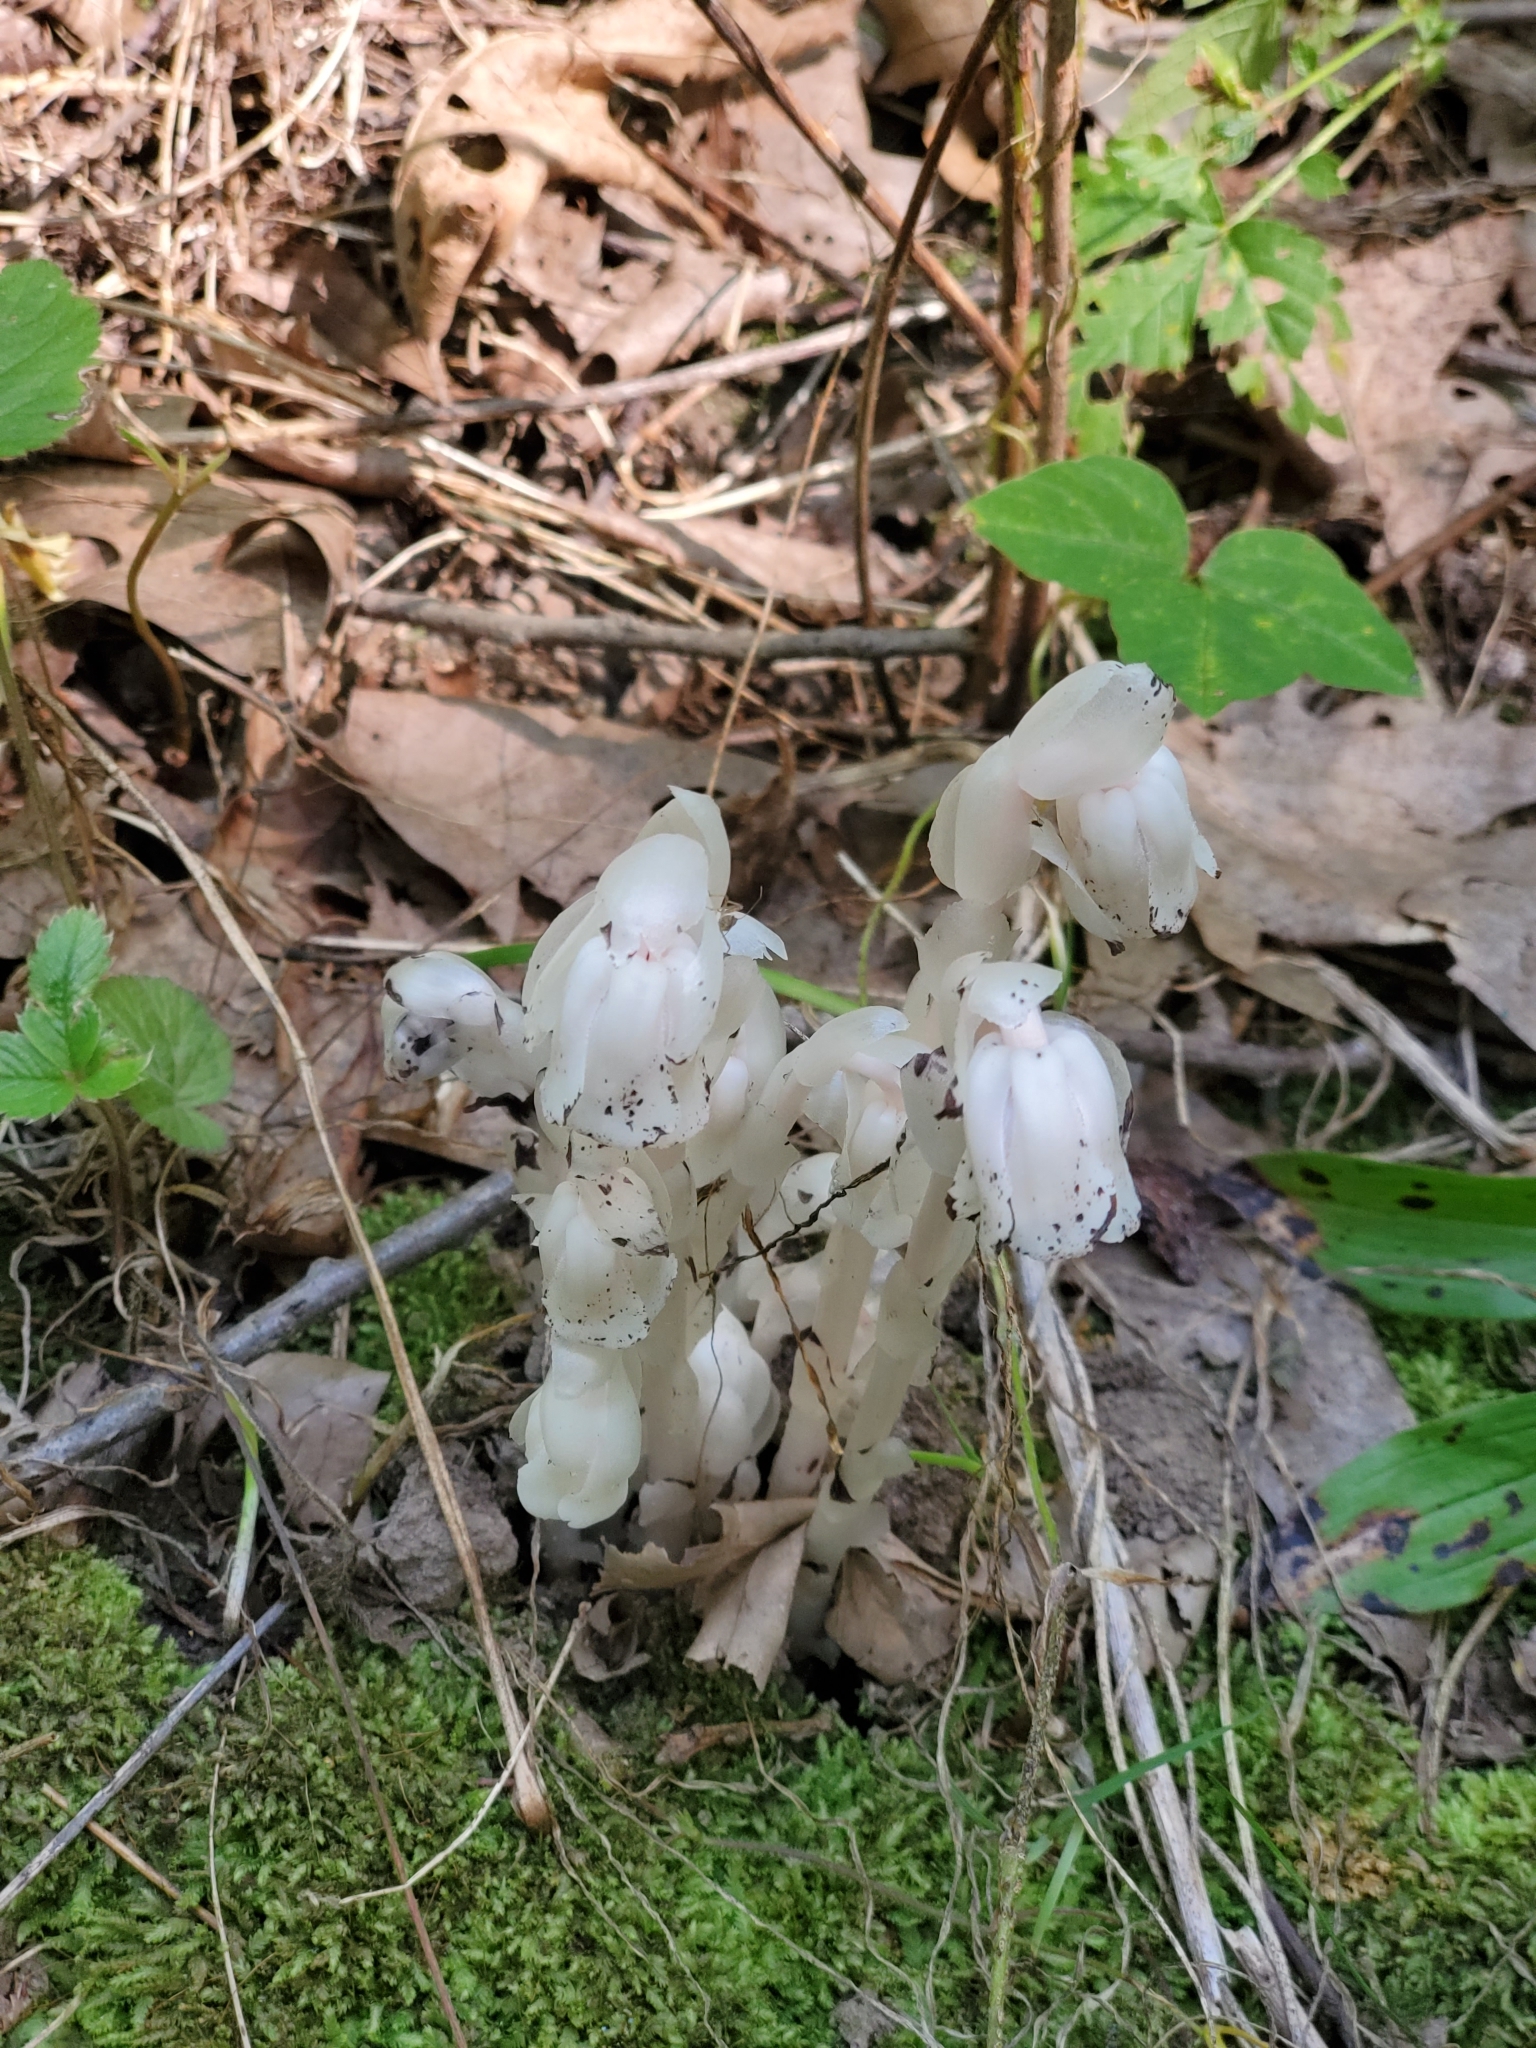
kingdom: Plantae
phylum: Tracheophyta
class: Magnoliopsida
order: Ericales
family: Ericaceae
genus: Monotropa
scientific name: Monotropa uniflora
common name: Convulsion root
